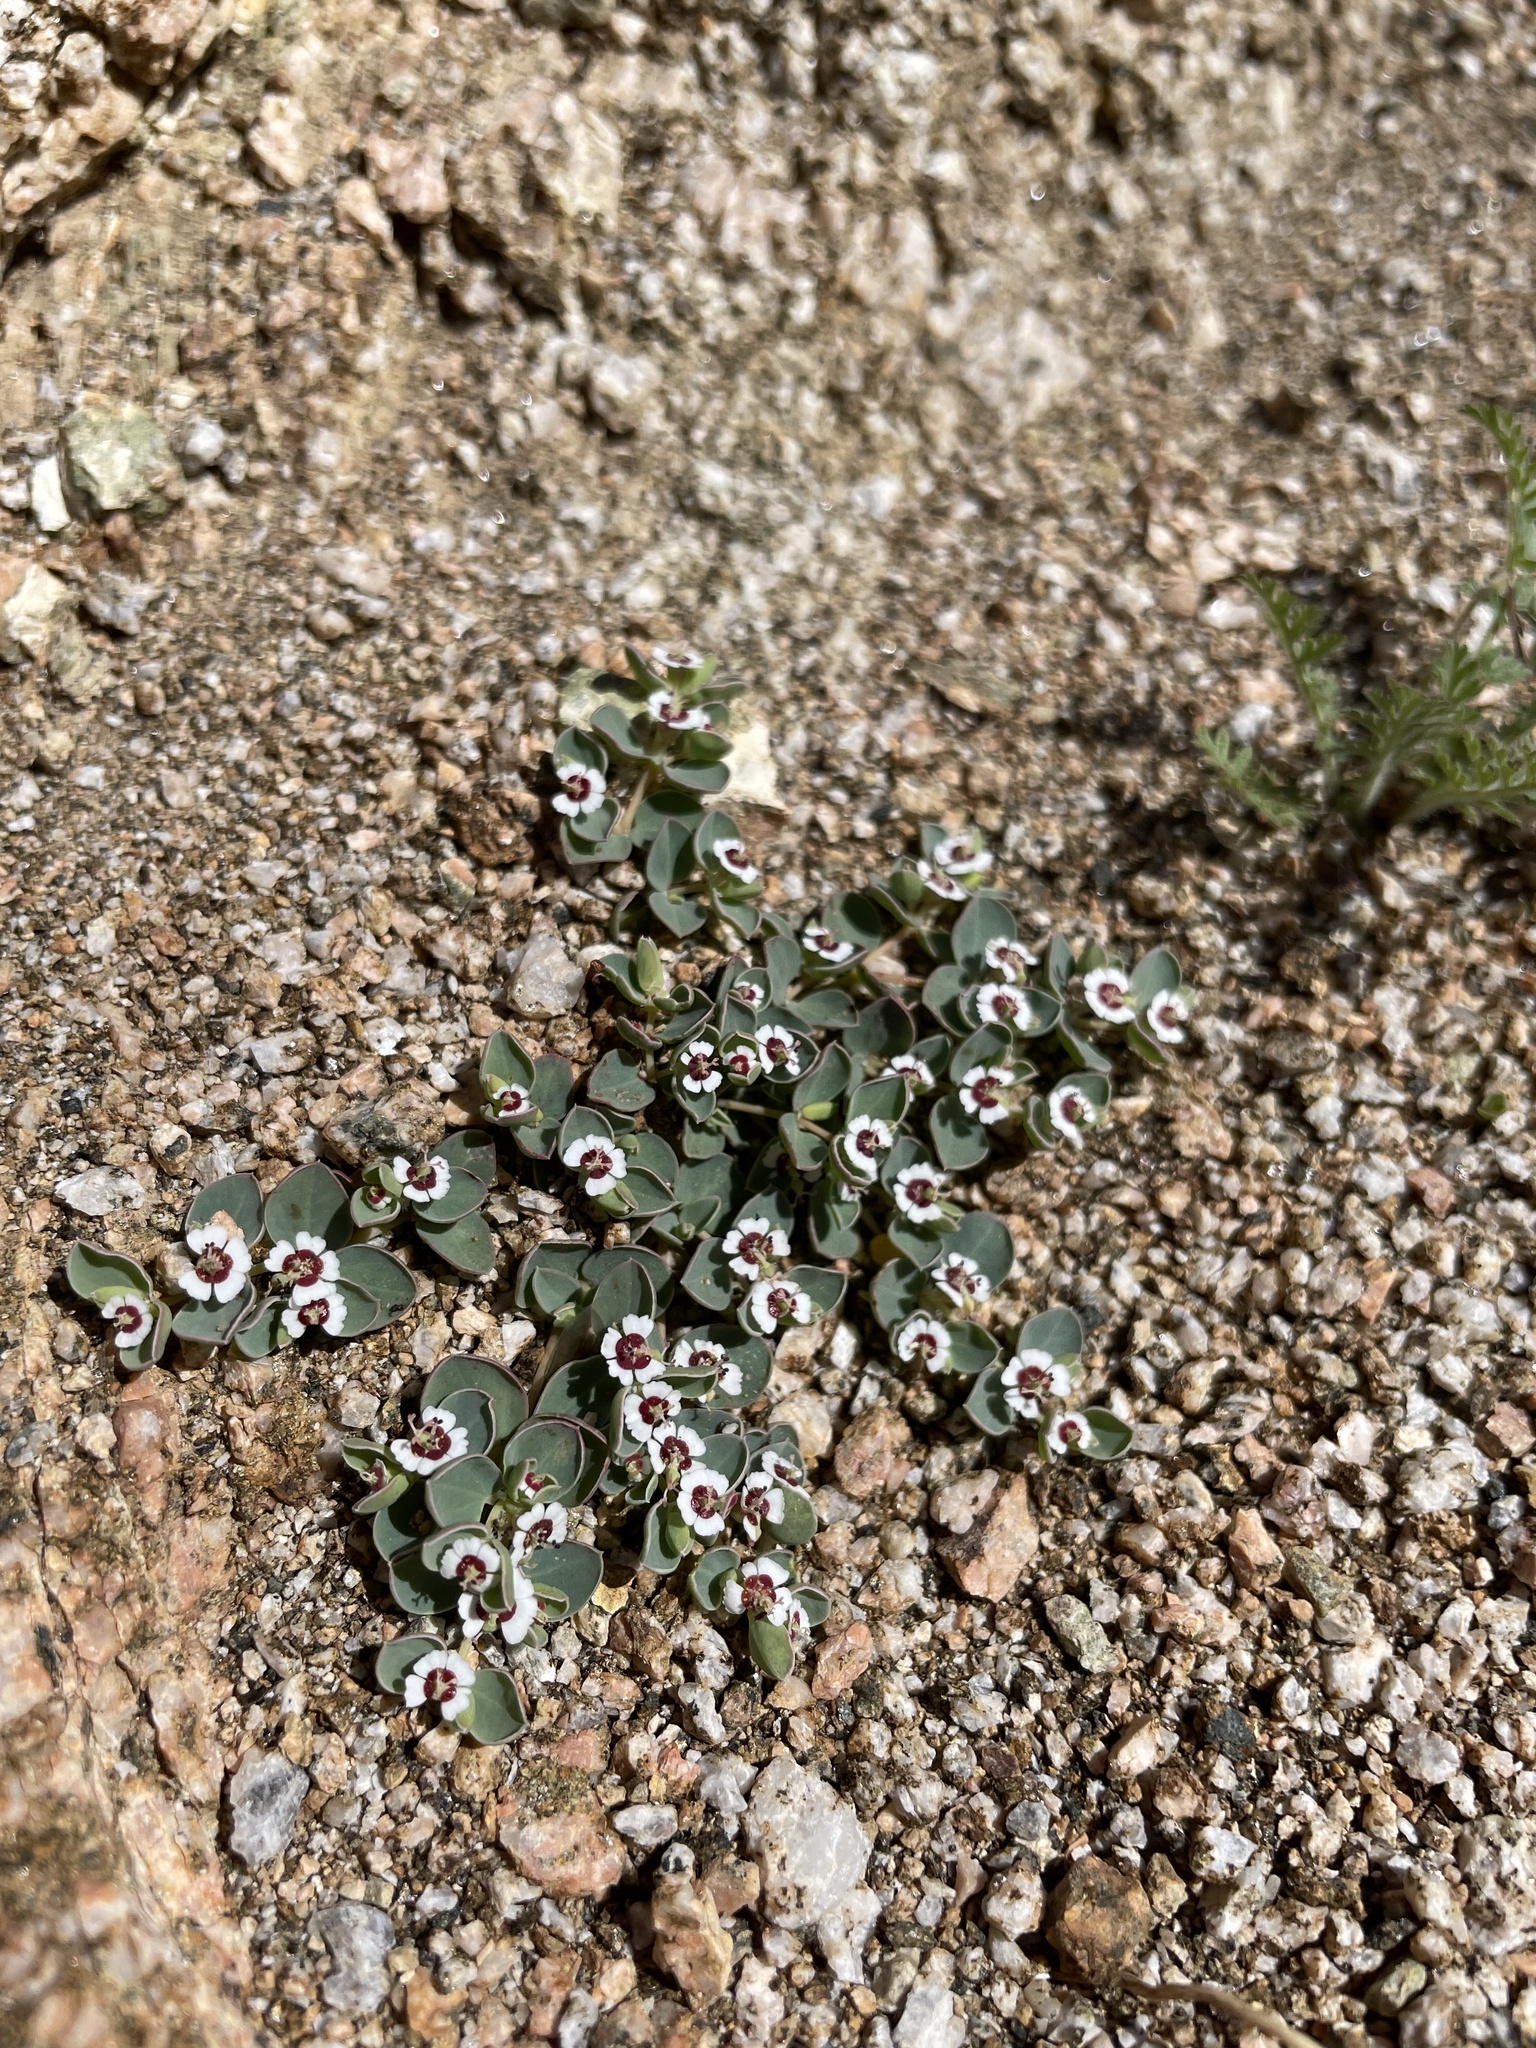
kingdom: Plantae
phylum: Tracheophyta
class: Magnoliopsida
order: Malpighiales
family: Euphorbiaceae
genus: Euphorbia
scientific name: Euphorbia albomarginata
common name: Whitemargin sandmat
